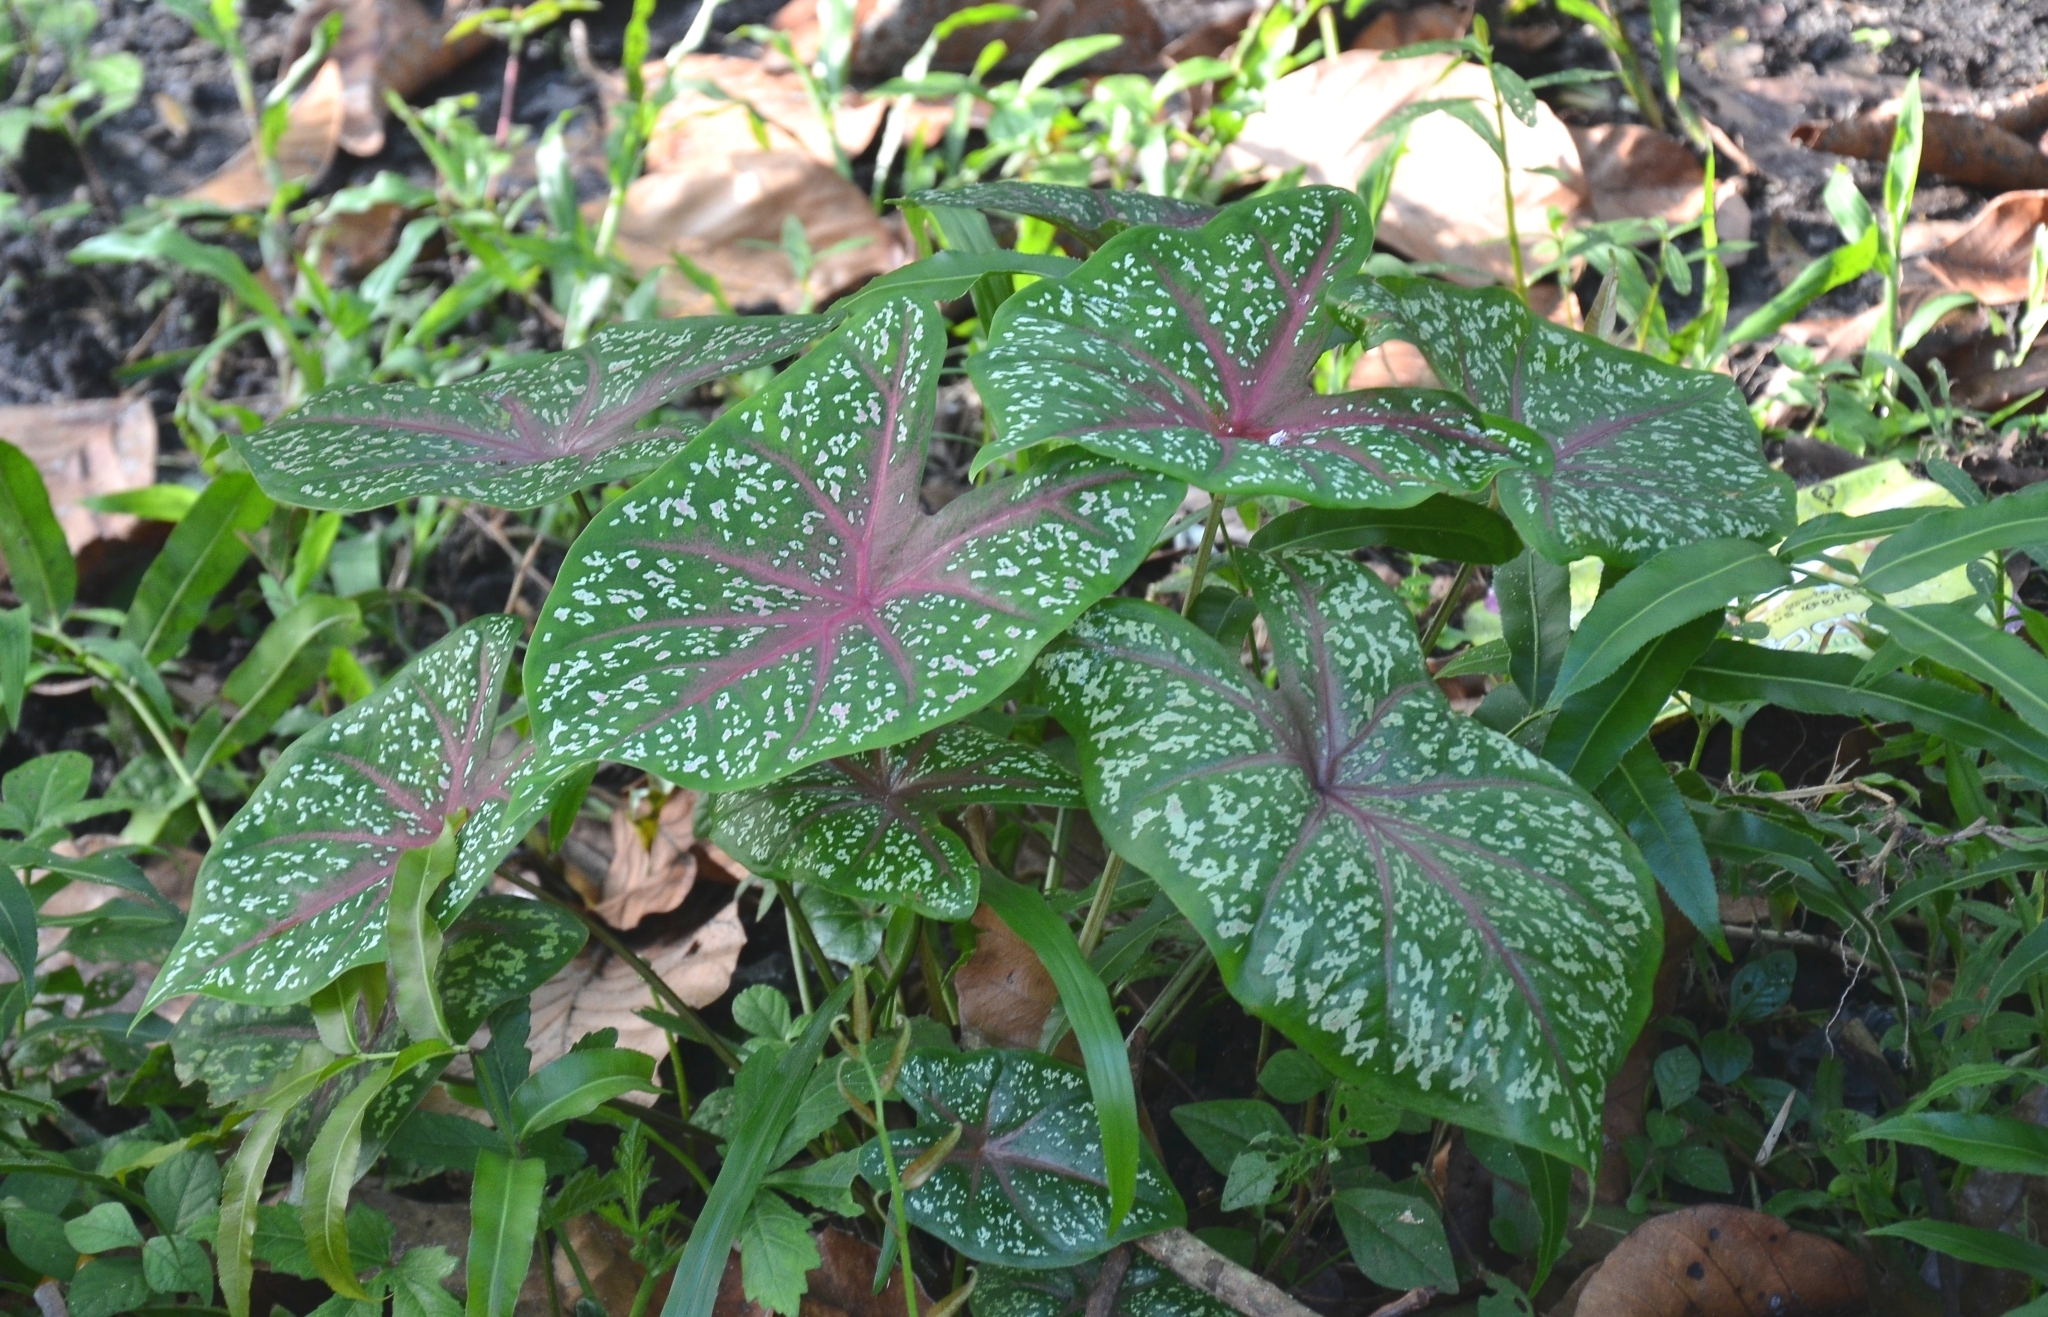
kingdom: Plantae
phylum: Tracheophyta
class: Liliopsida
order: Alismatales
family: Araceae
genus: Caladium
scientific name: Caladium bicolor
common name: Artist's pallet
